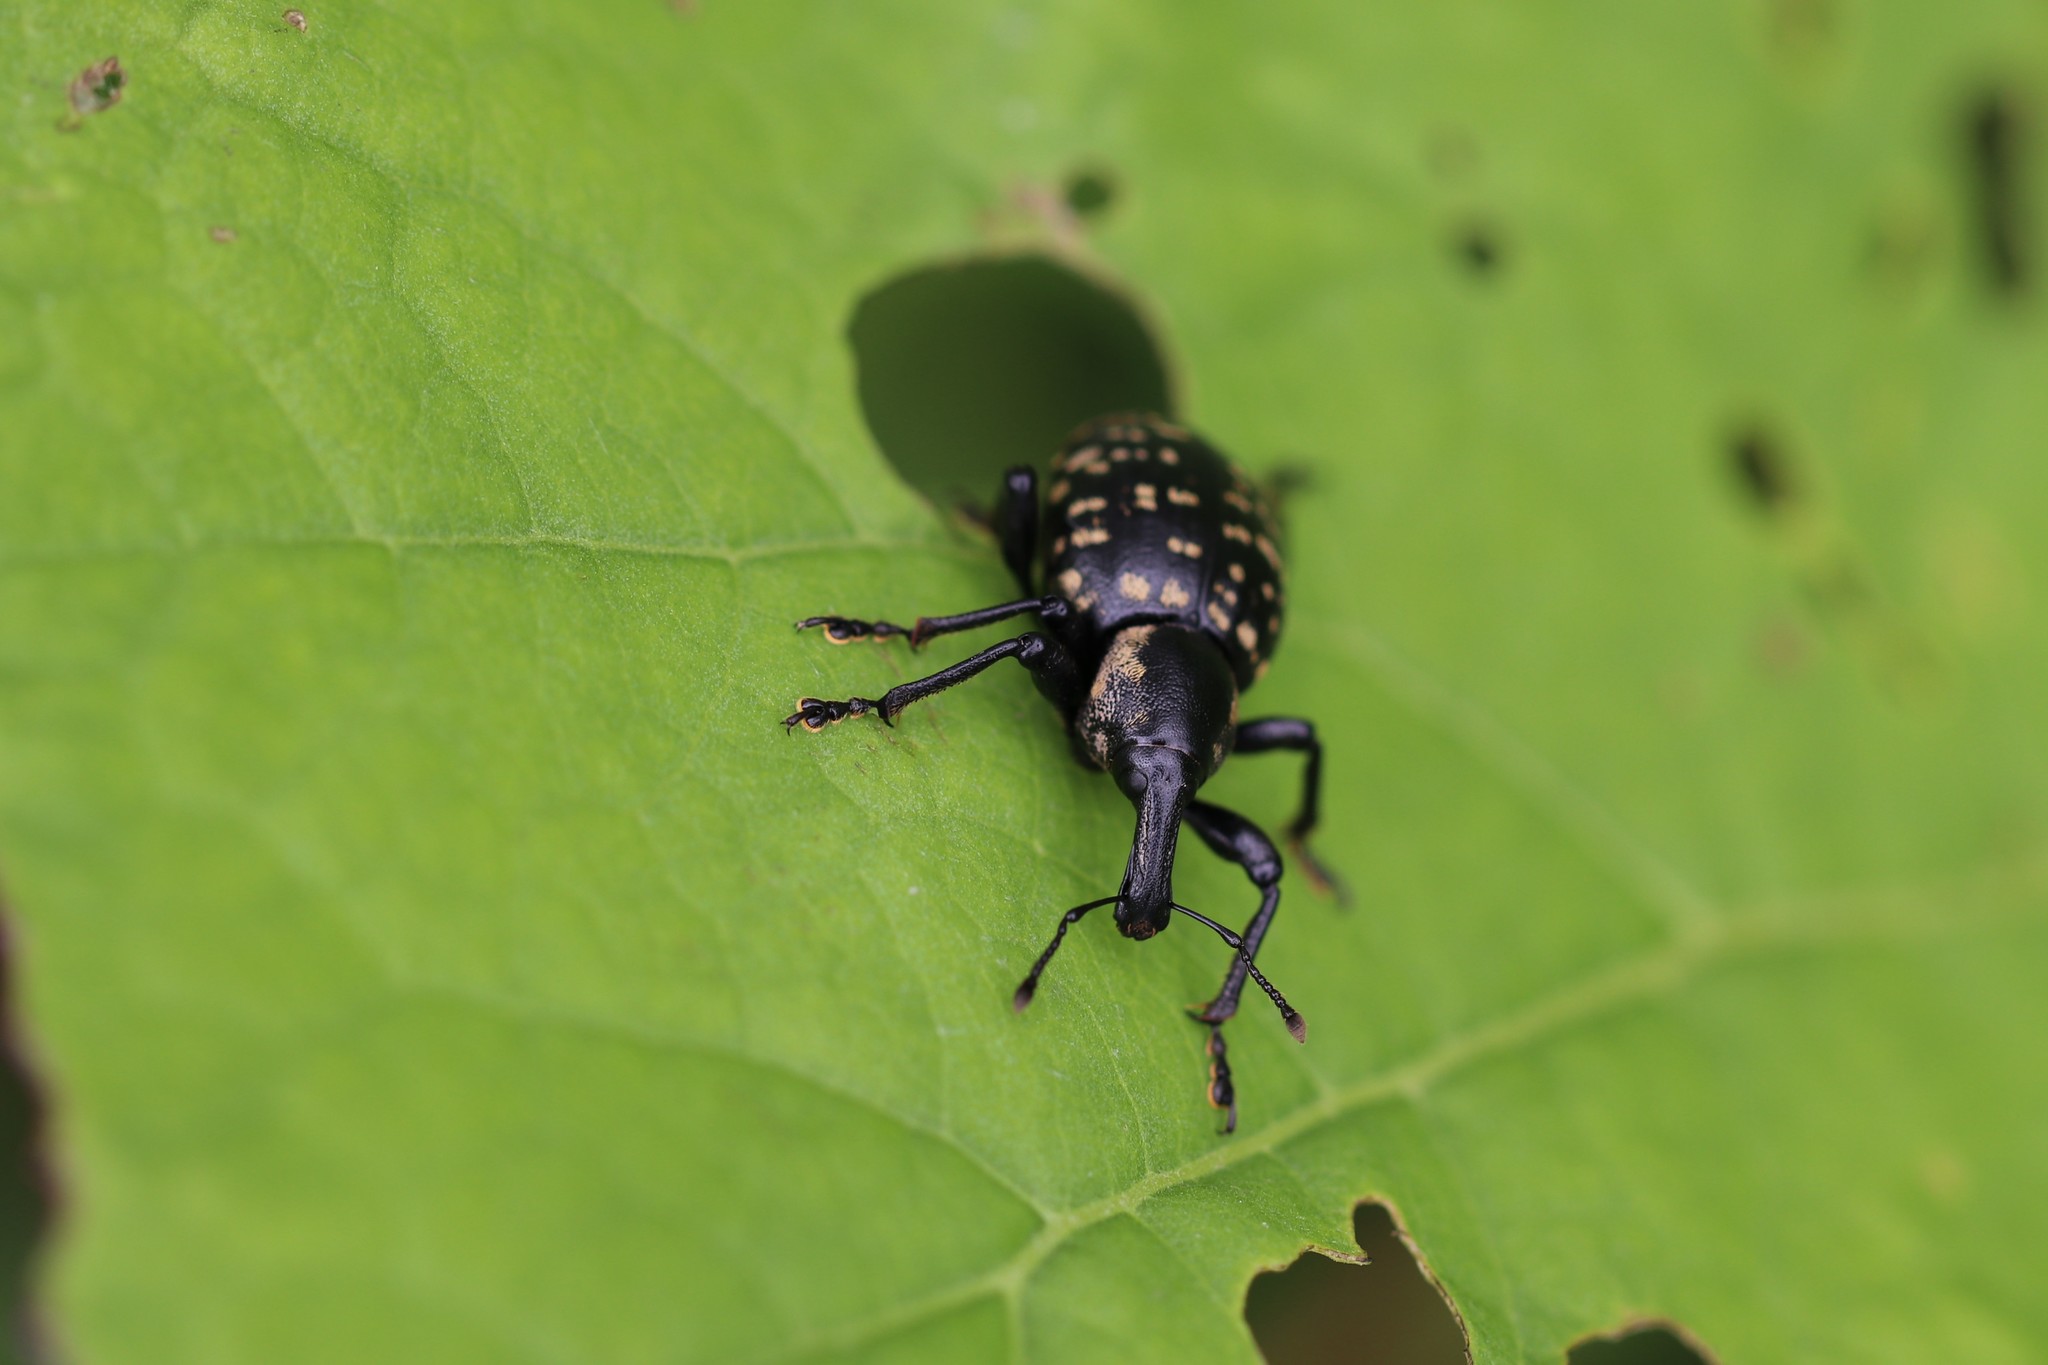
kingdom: Animalia
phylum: Arthropoda
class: Insecta
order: Coleoptera
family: Curculionidae
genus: Liparus
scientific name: Liparus glabrirostris
